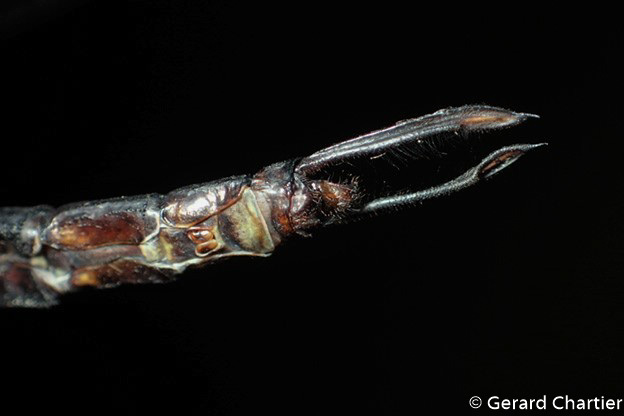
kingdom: Animalia
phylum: Arthropoda
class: Insecta
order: Odonata
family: Aeshnidae
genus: Heliaeschna
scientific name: Heliaeschna crassa
